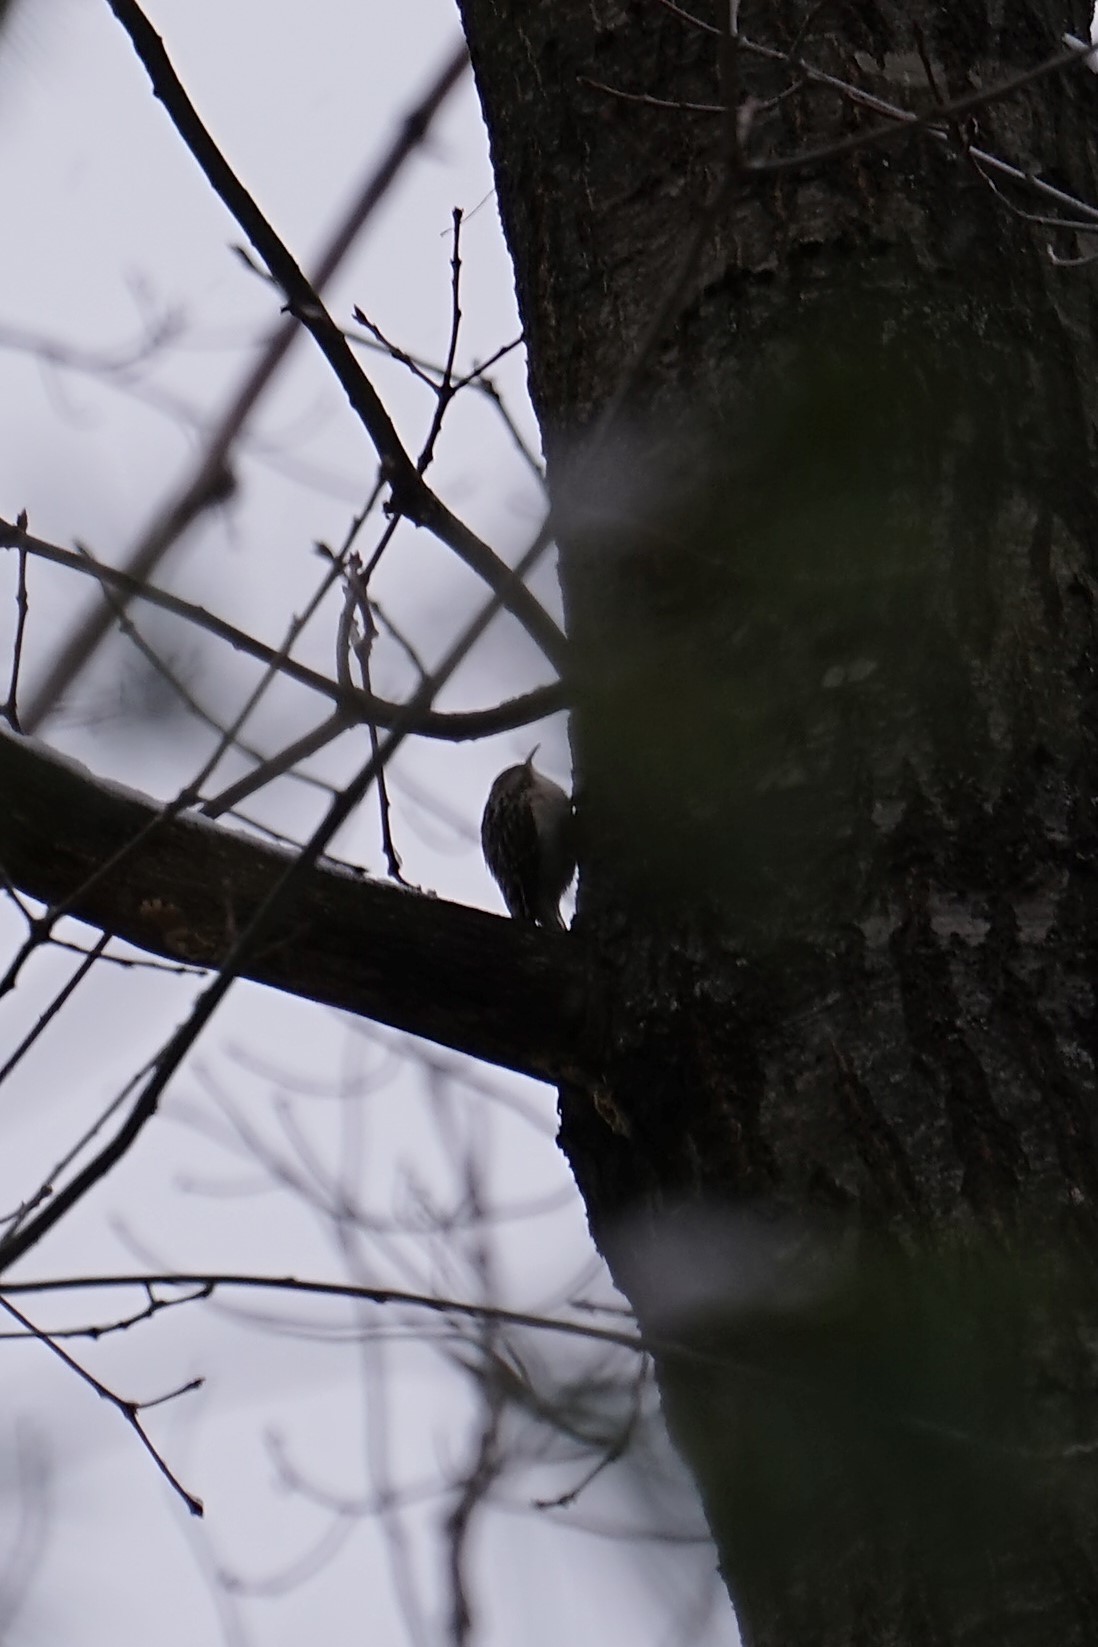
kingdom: Animalia
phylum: Chordata
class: Aves
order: Passeriformes
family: Certhiidae
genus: Certhia
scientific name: Certhia americana
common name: Brown creeper
